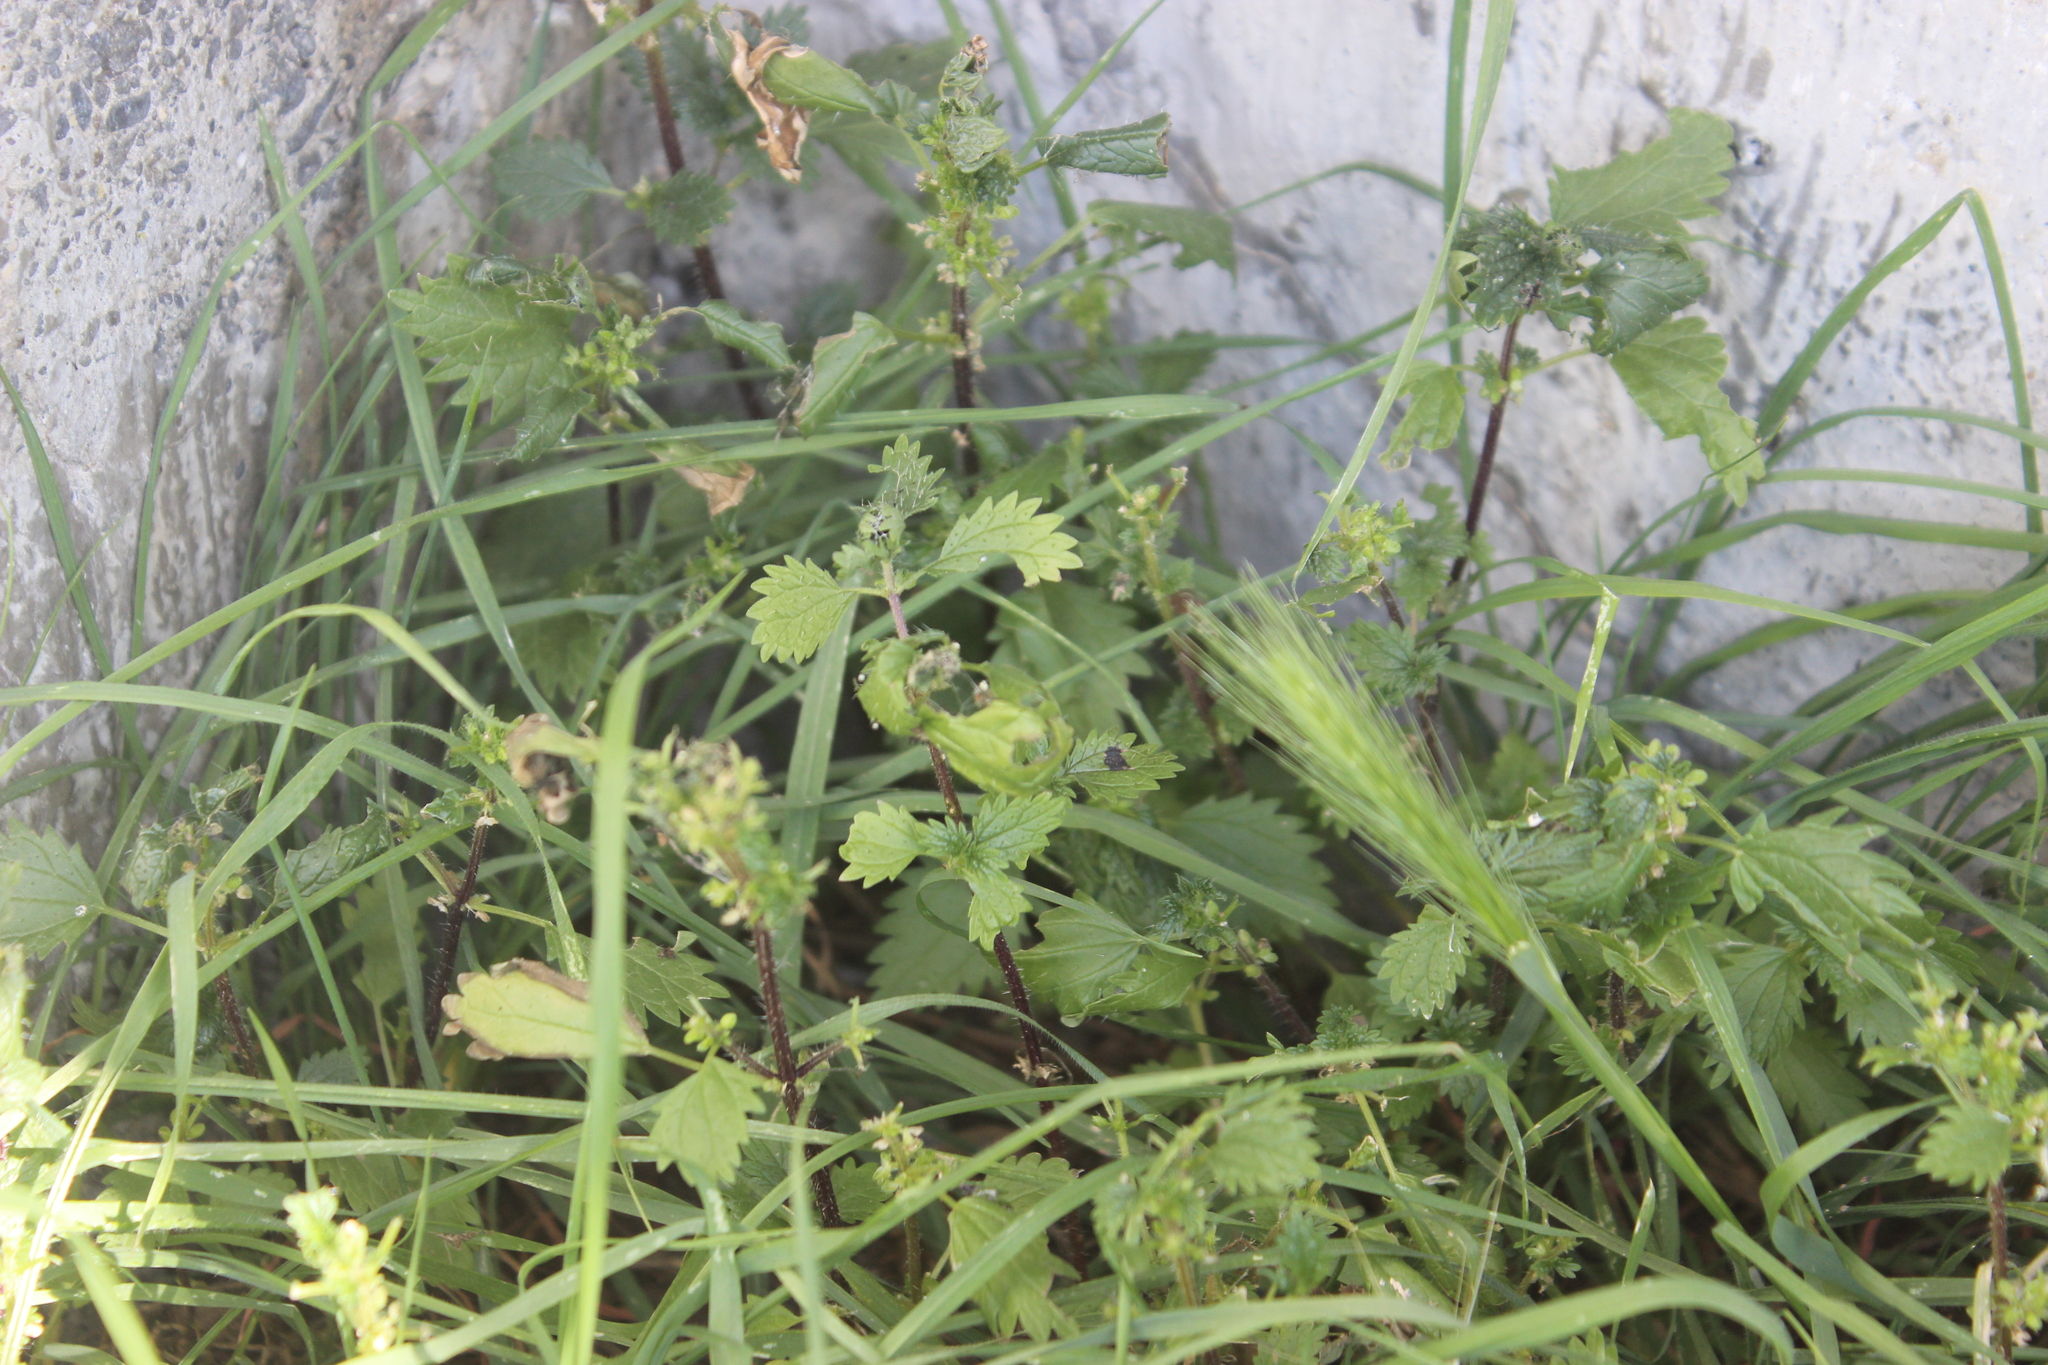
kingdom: Plantae
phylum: Tracheophyta
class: Magnoliopsida
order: Rosales
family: Urticaceae
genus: Urtica
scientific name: Urtica urens
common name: Dwarf nettle
